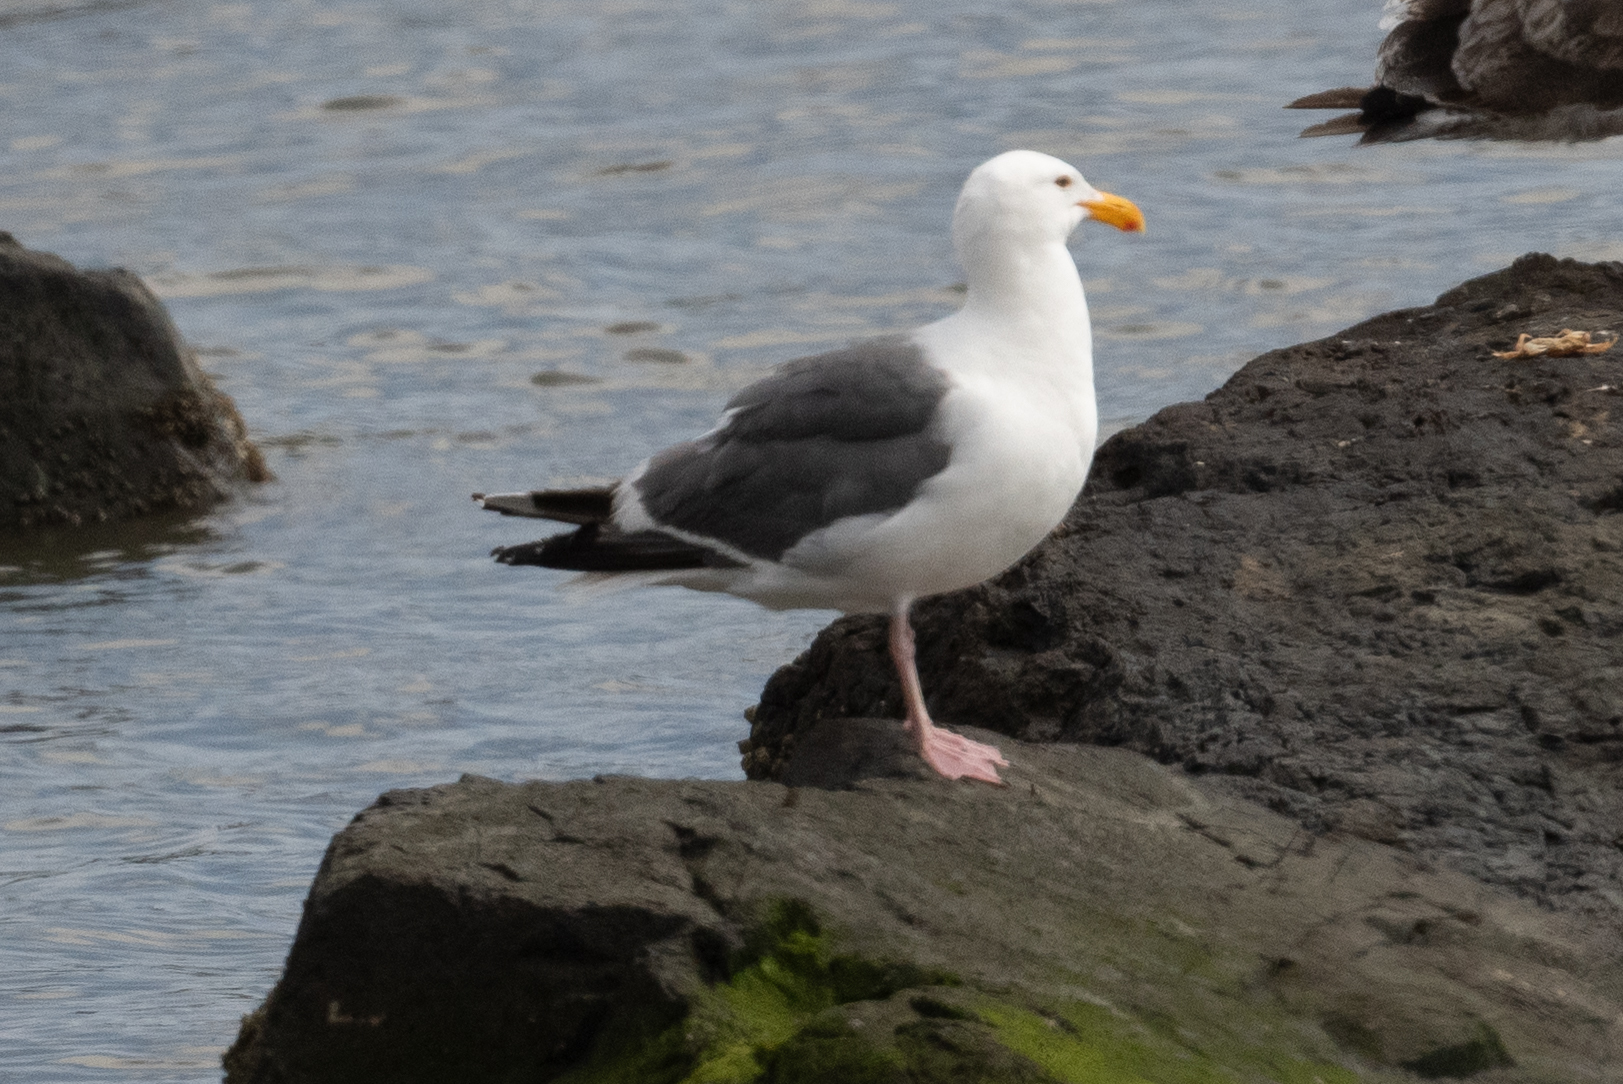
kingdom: Animalia
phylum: Chordata
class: Aves
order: Charadriiformes
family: Laridae
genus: Larus
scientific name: Larus occidentalis
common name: Western gull
